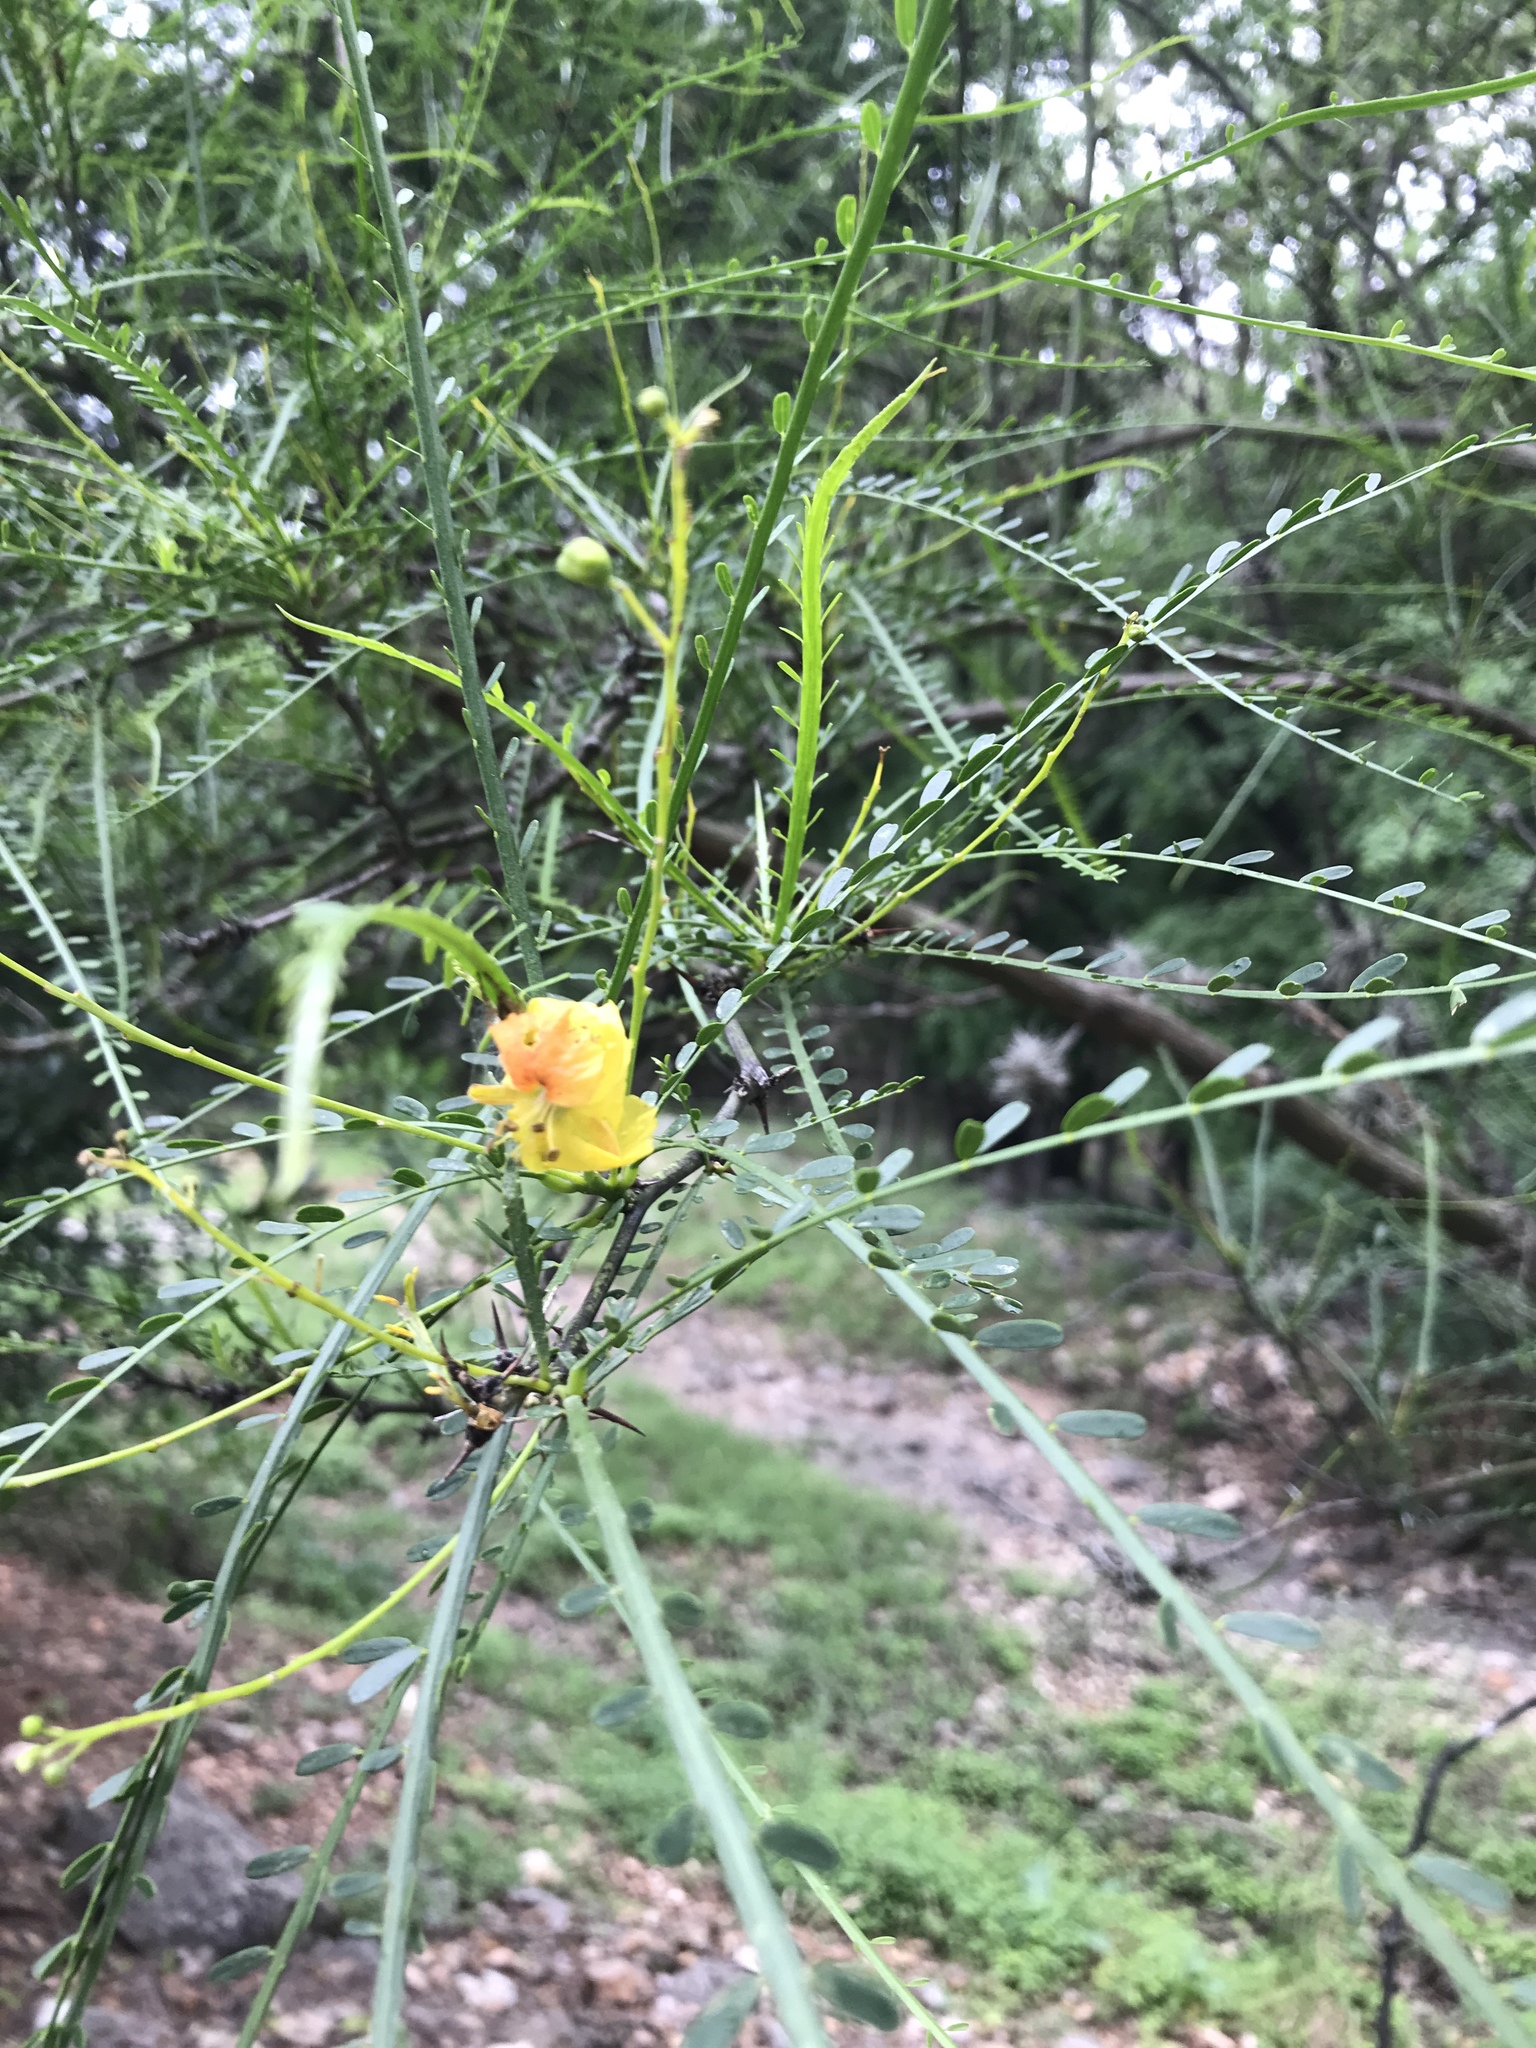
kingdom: Plantae
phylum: Tracheophyta
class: Magnoliopsida
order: Fabales
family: Fabaceae
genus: Parkinsonia
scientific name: Parkinsonia aculeata
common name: Jerusalem thorn
